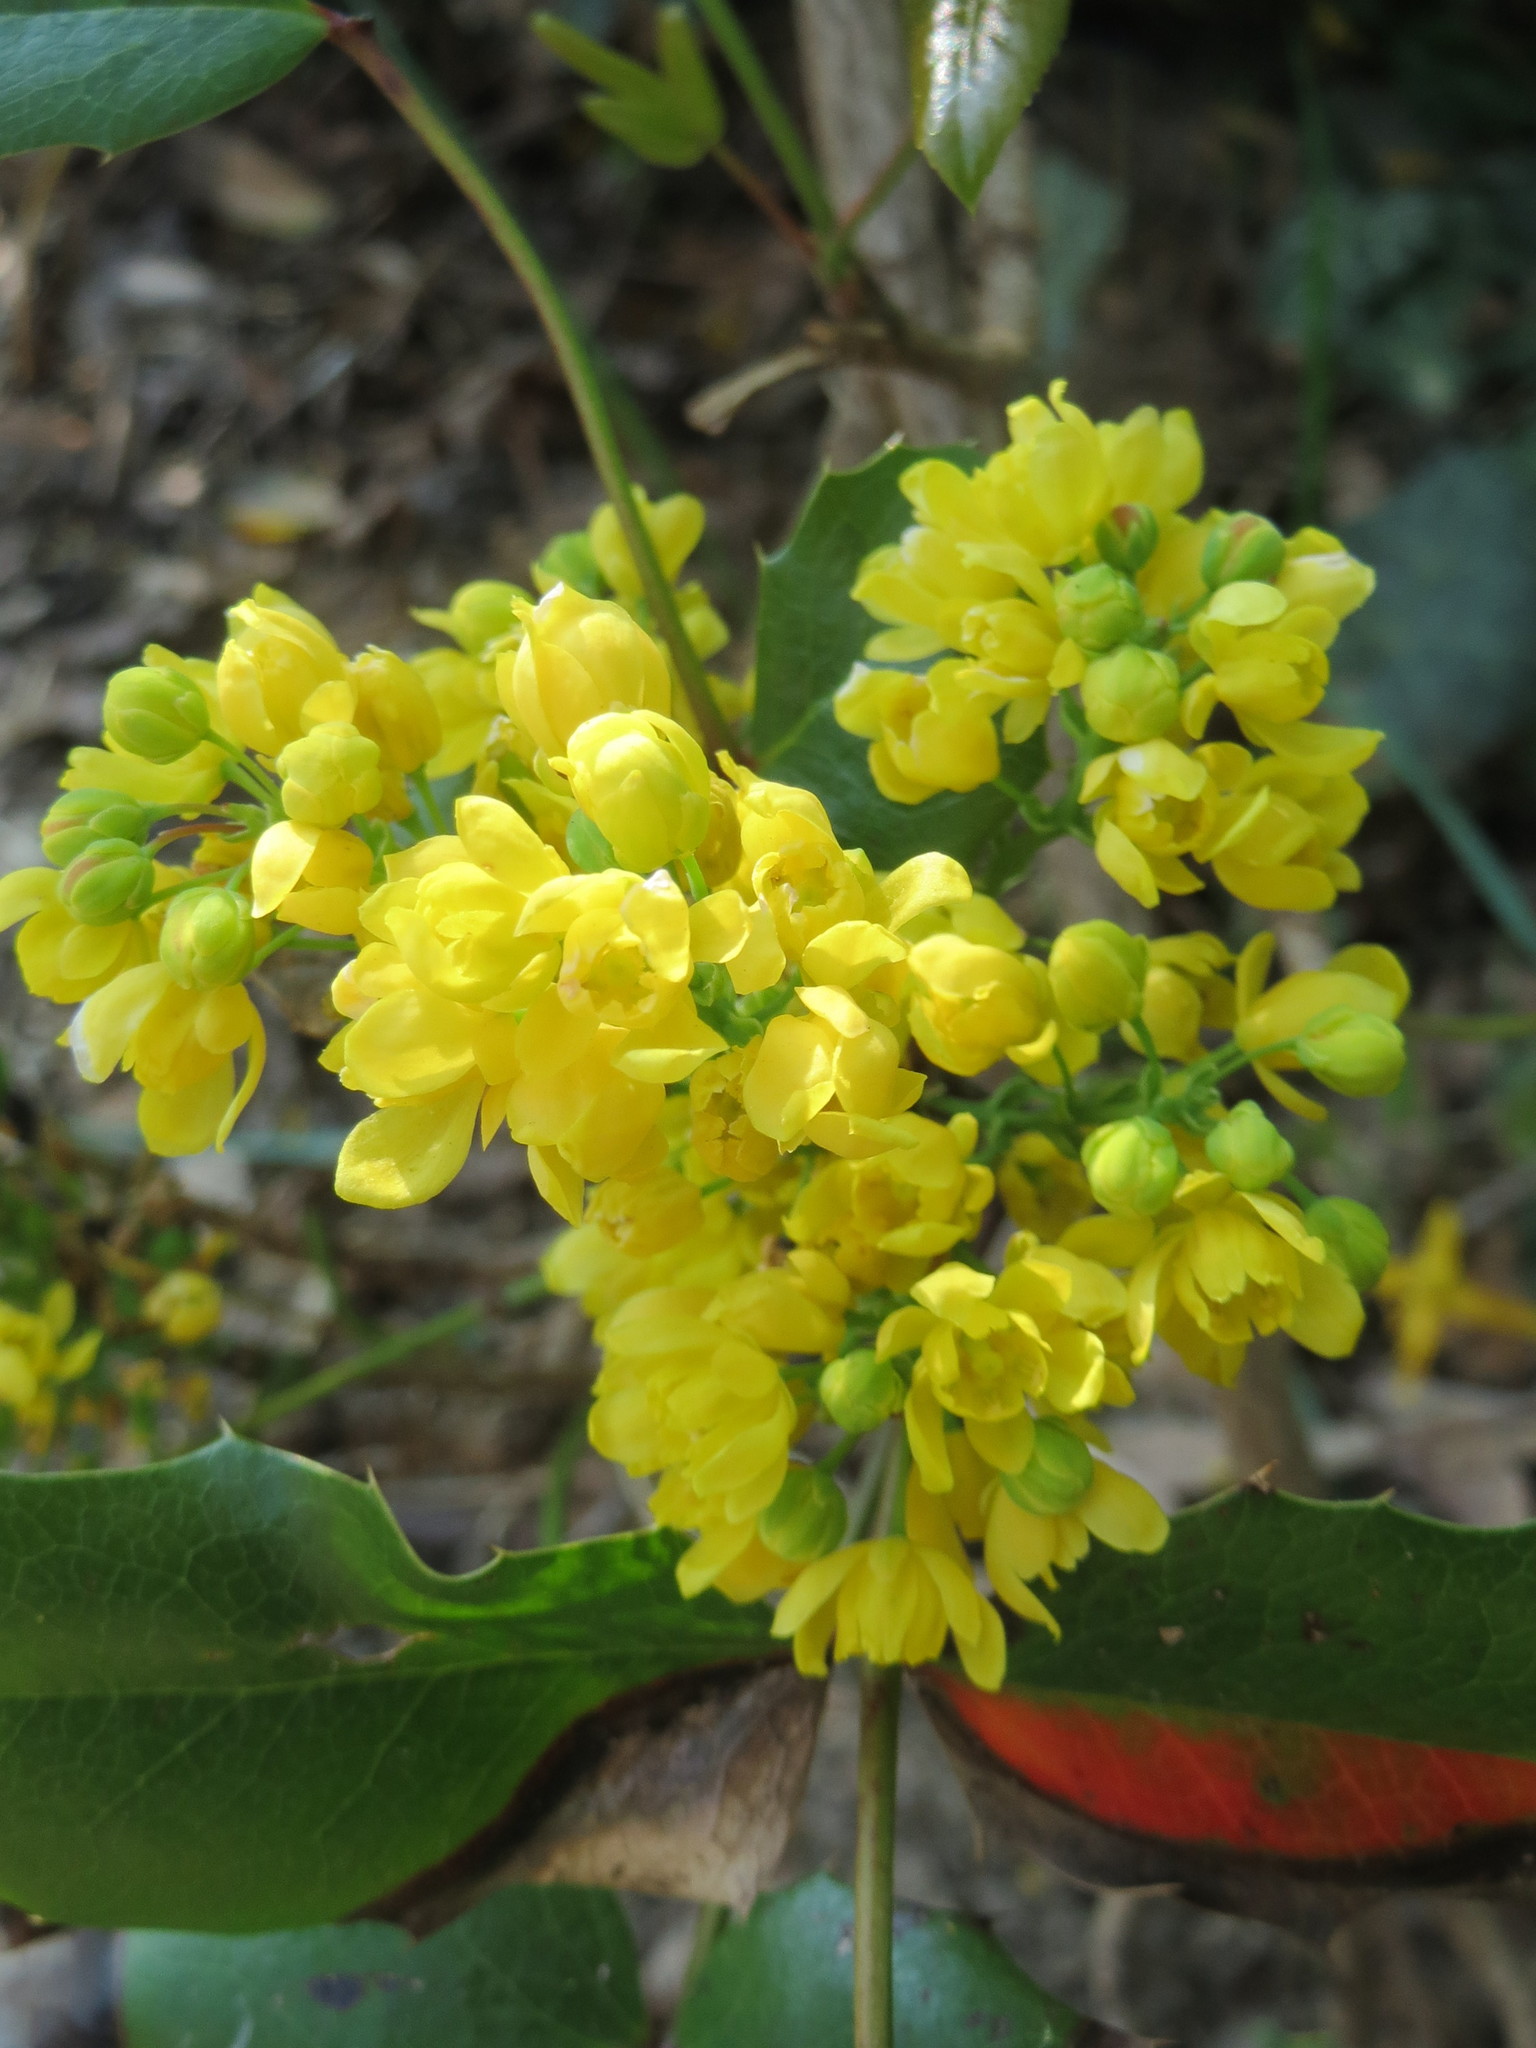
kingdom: Plantae
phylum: Tracheophyta
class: Magnoliopsida
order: Ranunculales
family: Berberidaceae
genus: Mahonia
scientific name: Mahonia aquifolium
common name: Oregon-grape
